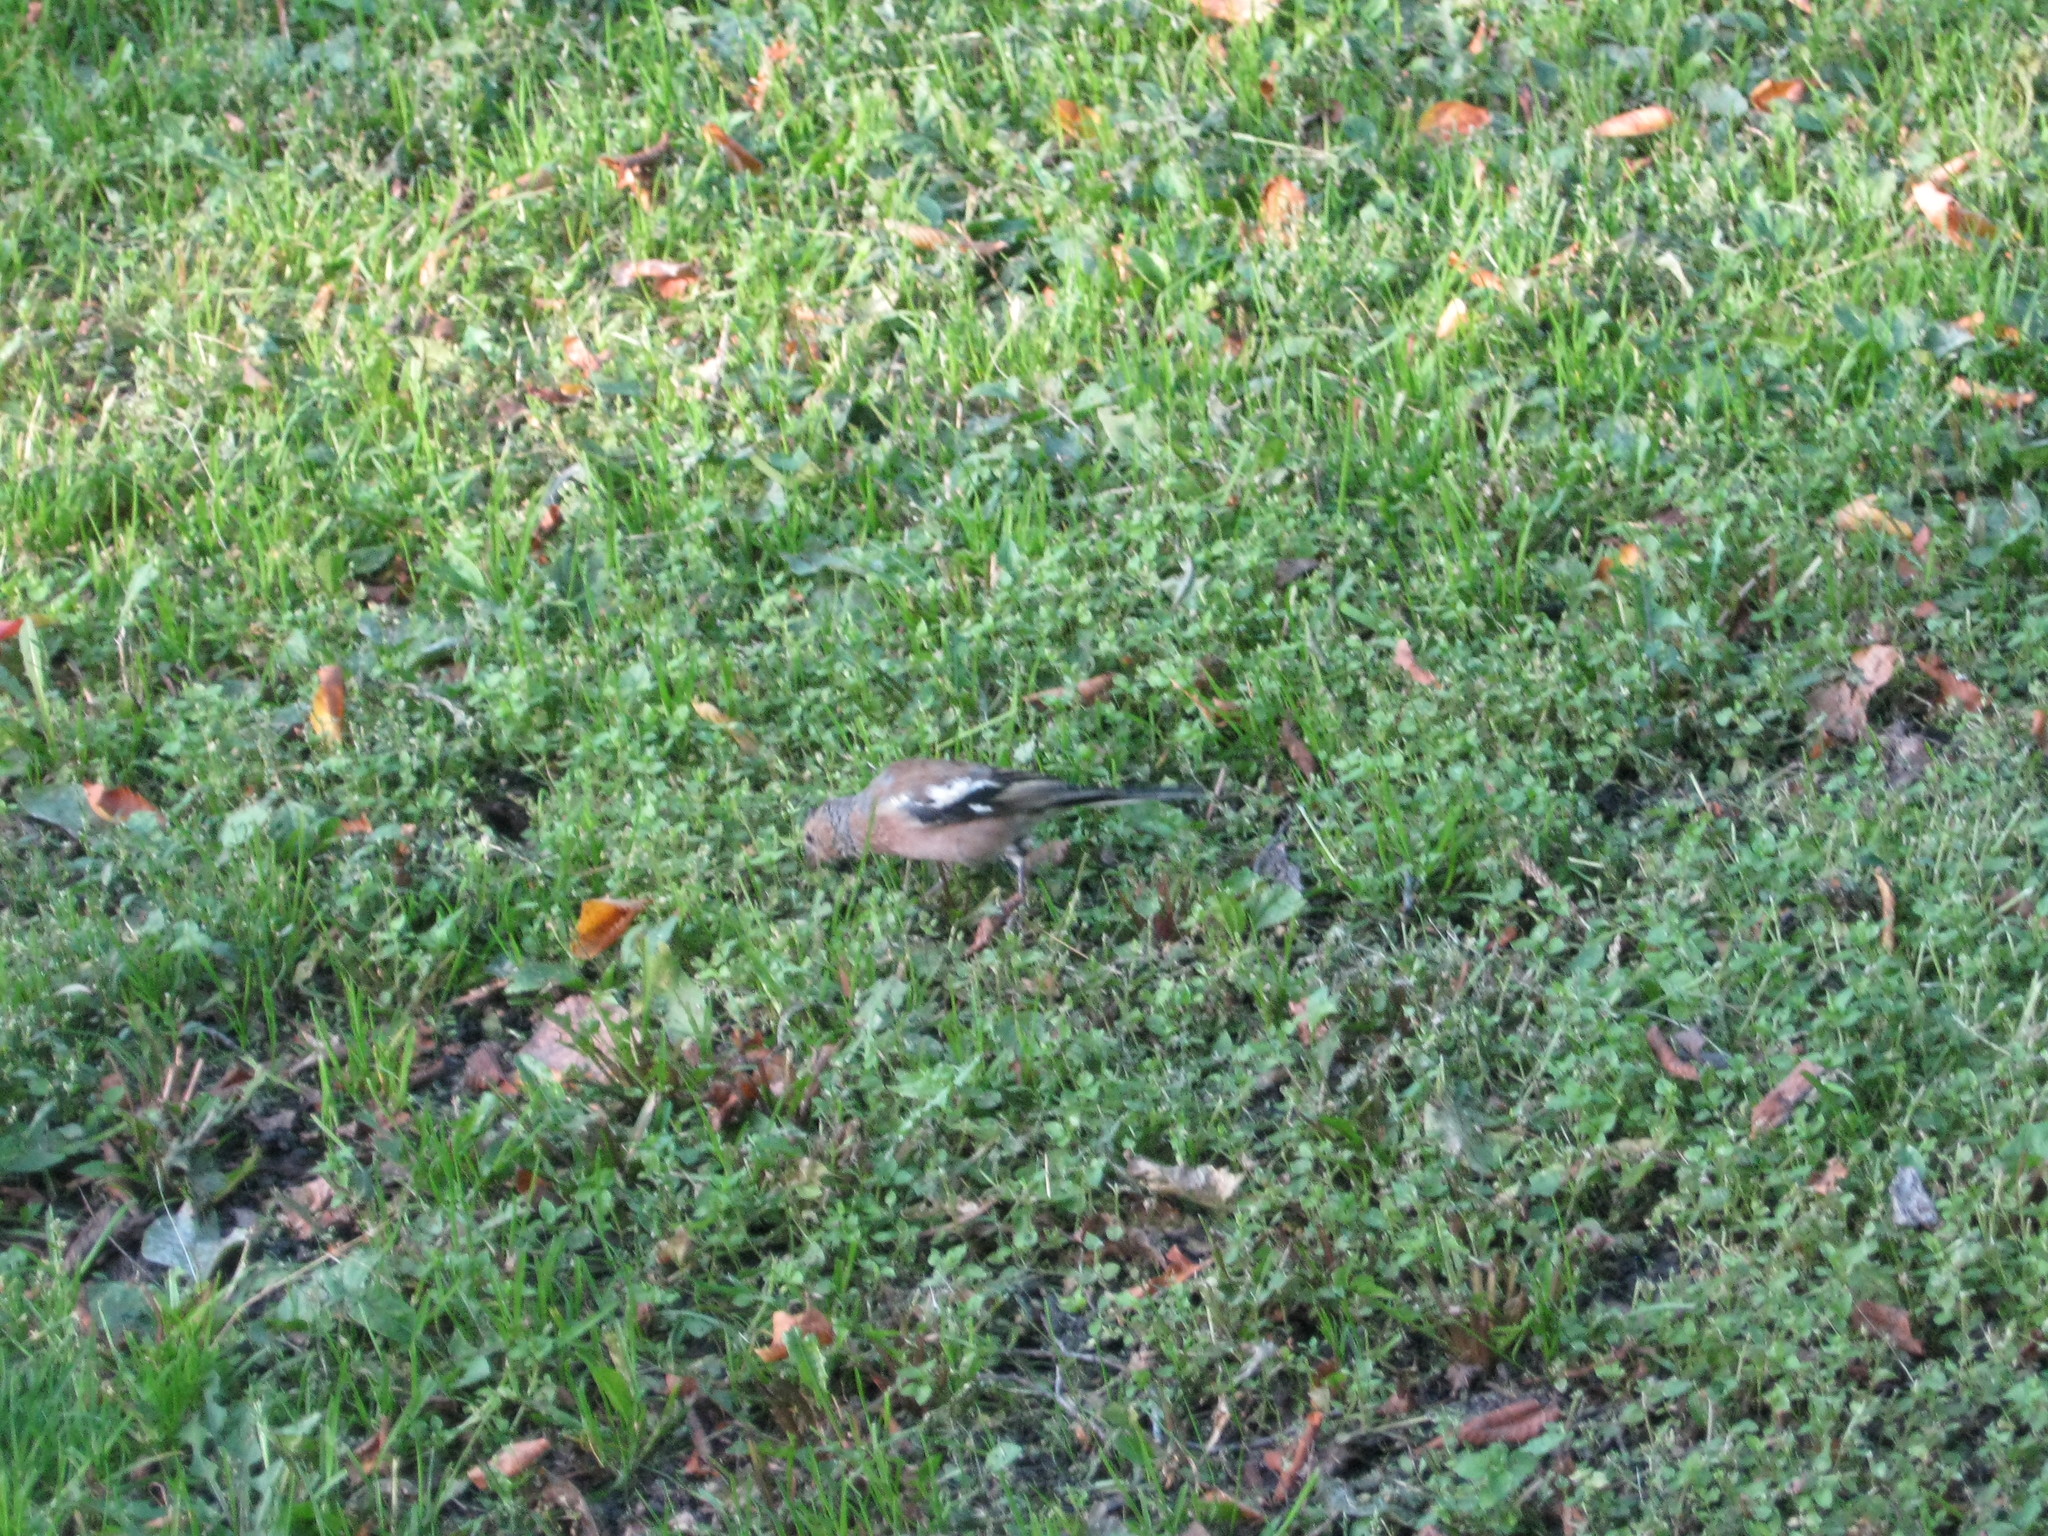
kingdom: Animalia
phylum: Chordata
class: Aves
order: Passeriformes
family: Fringillidae
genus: Fringilla
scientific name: Fringilla coelebs
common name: Common chaffinch
